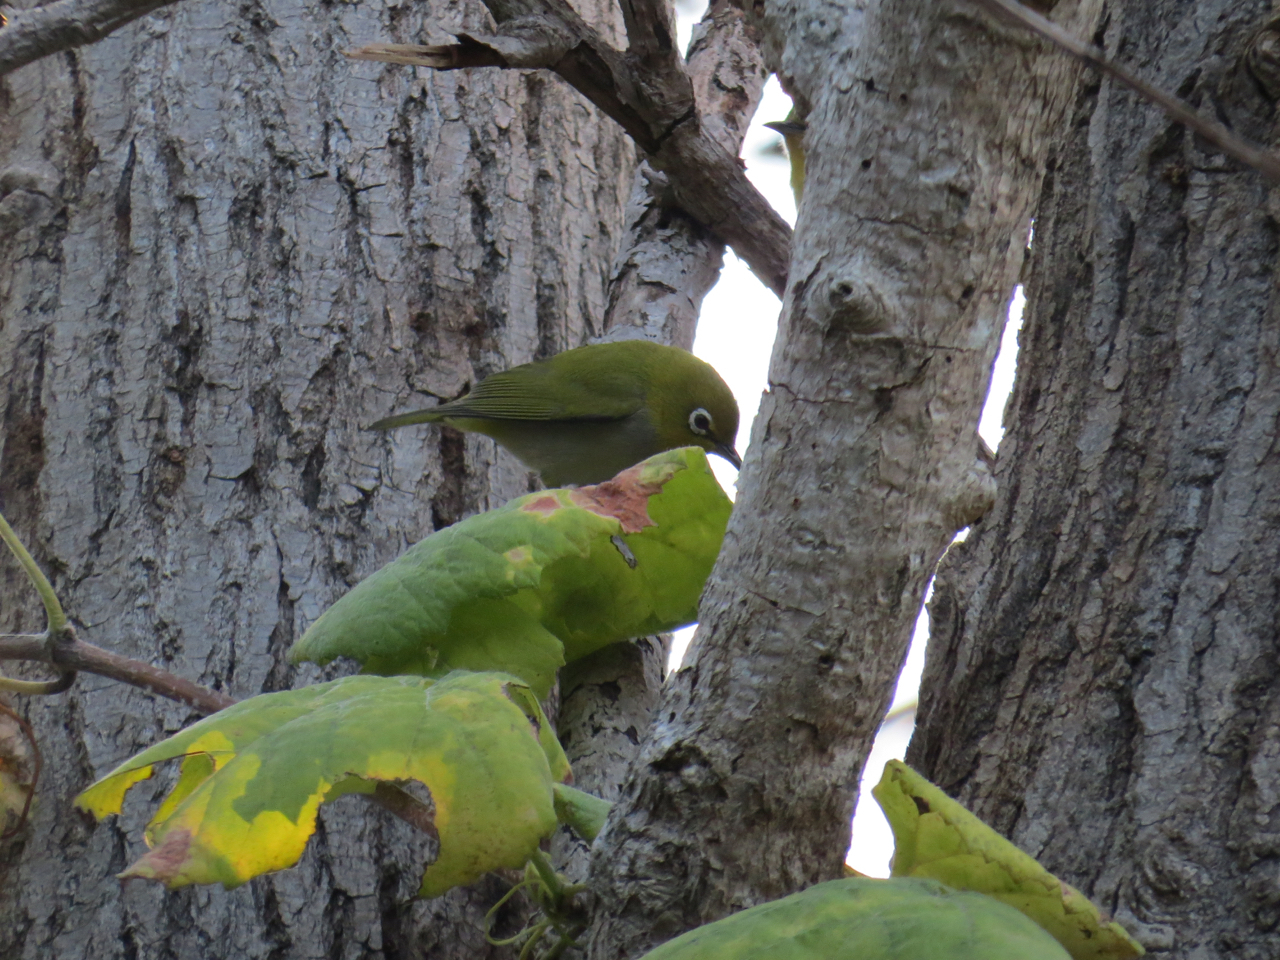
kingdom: Animalia
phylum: Chordata
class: Aves
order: Passeriformes
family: Zosteropidae
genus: Zosterops
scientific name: Zosterops simplex
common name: Swinhoe's white-eye
